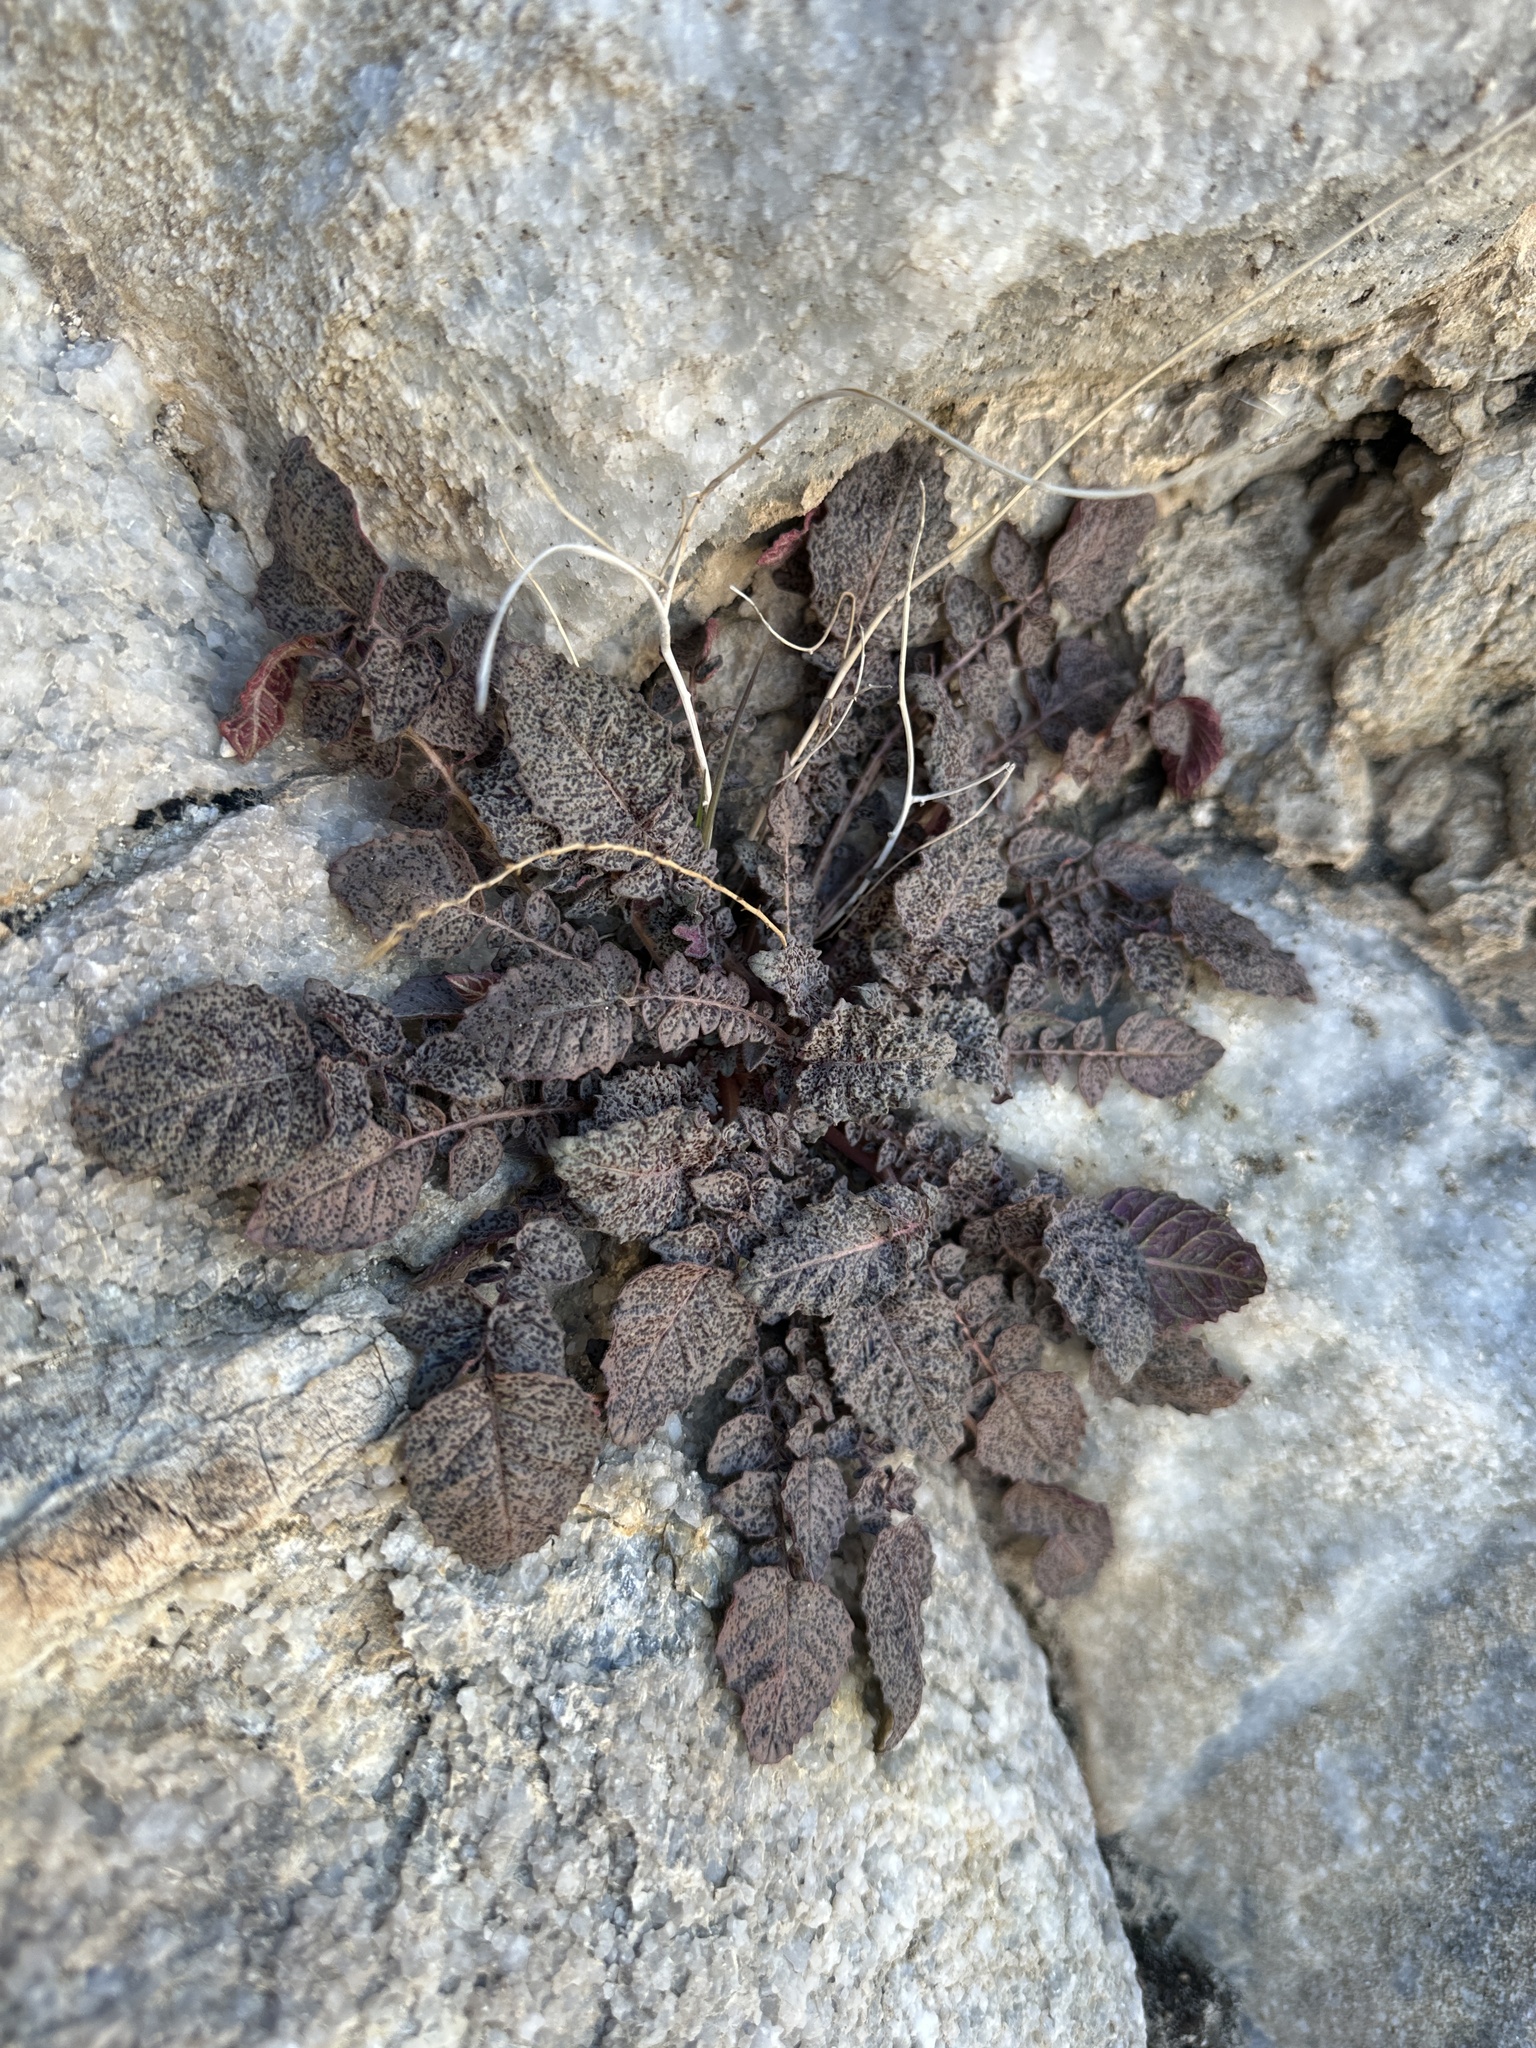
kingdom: Plantae
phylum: Tracheophyta
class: Magnoliopsida
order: Myrtales
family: Onagraceae
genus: Chylismia
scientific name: Chylismia walkeri
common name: Walker's suncup
